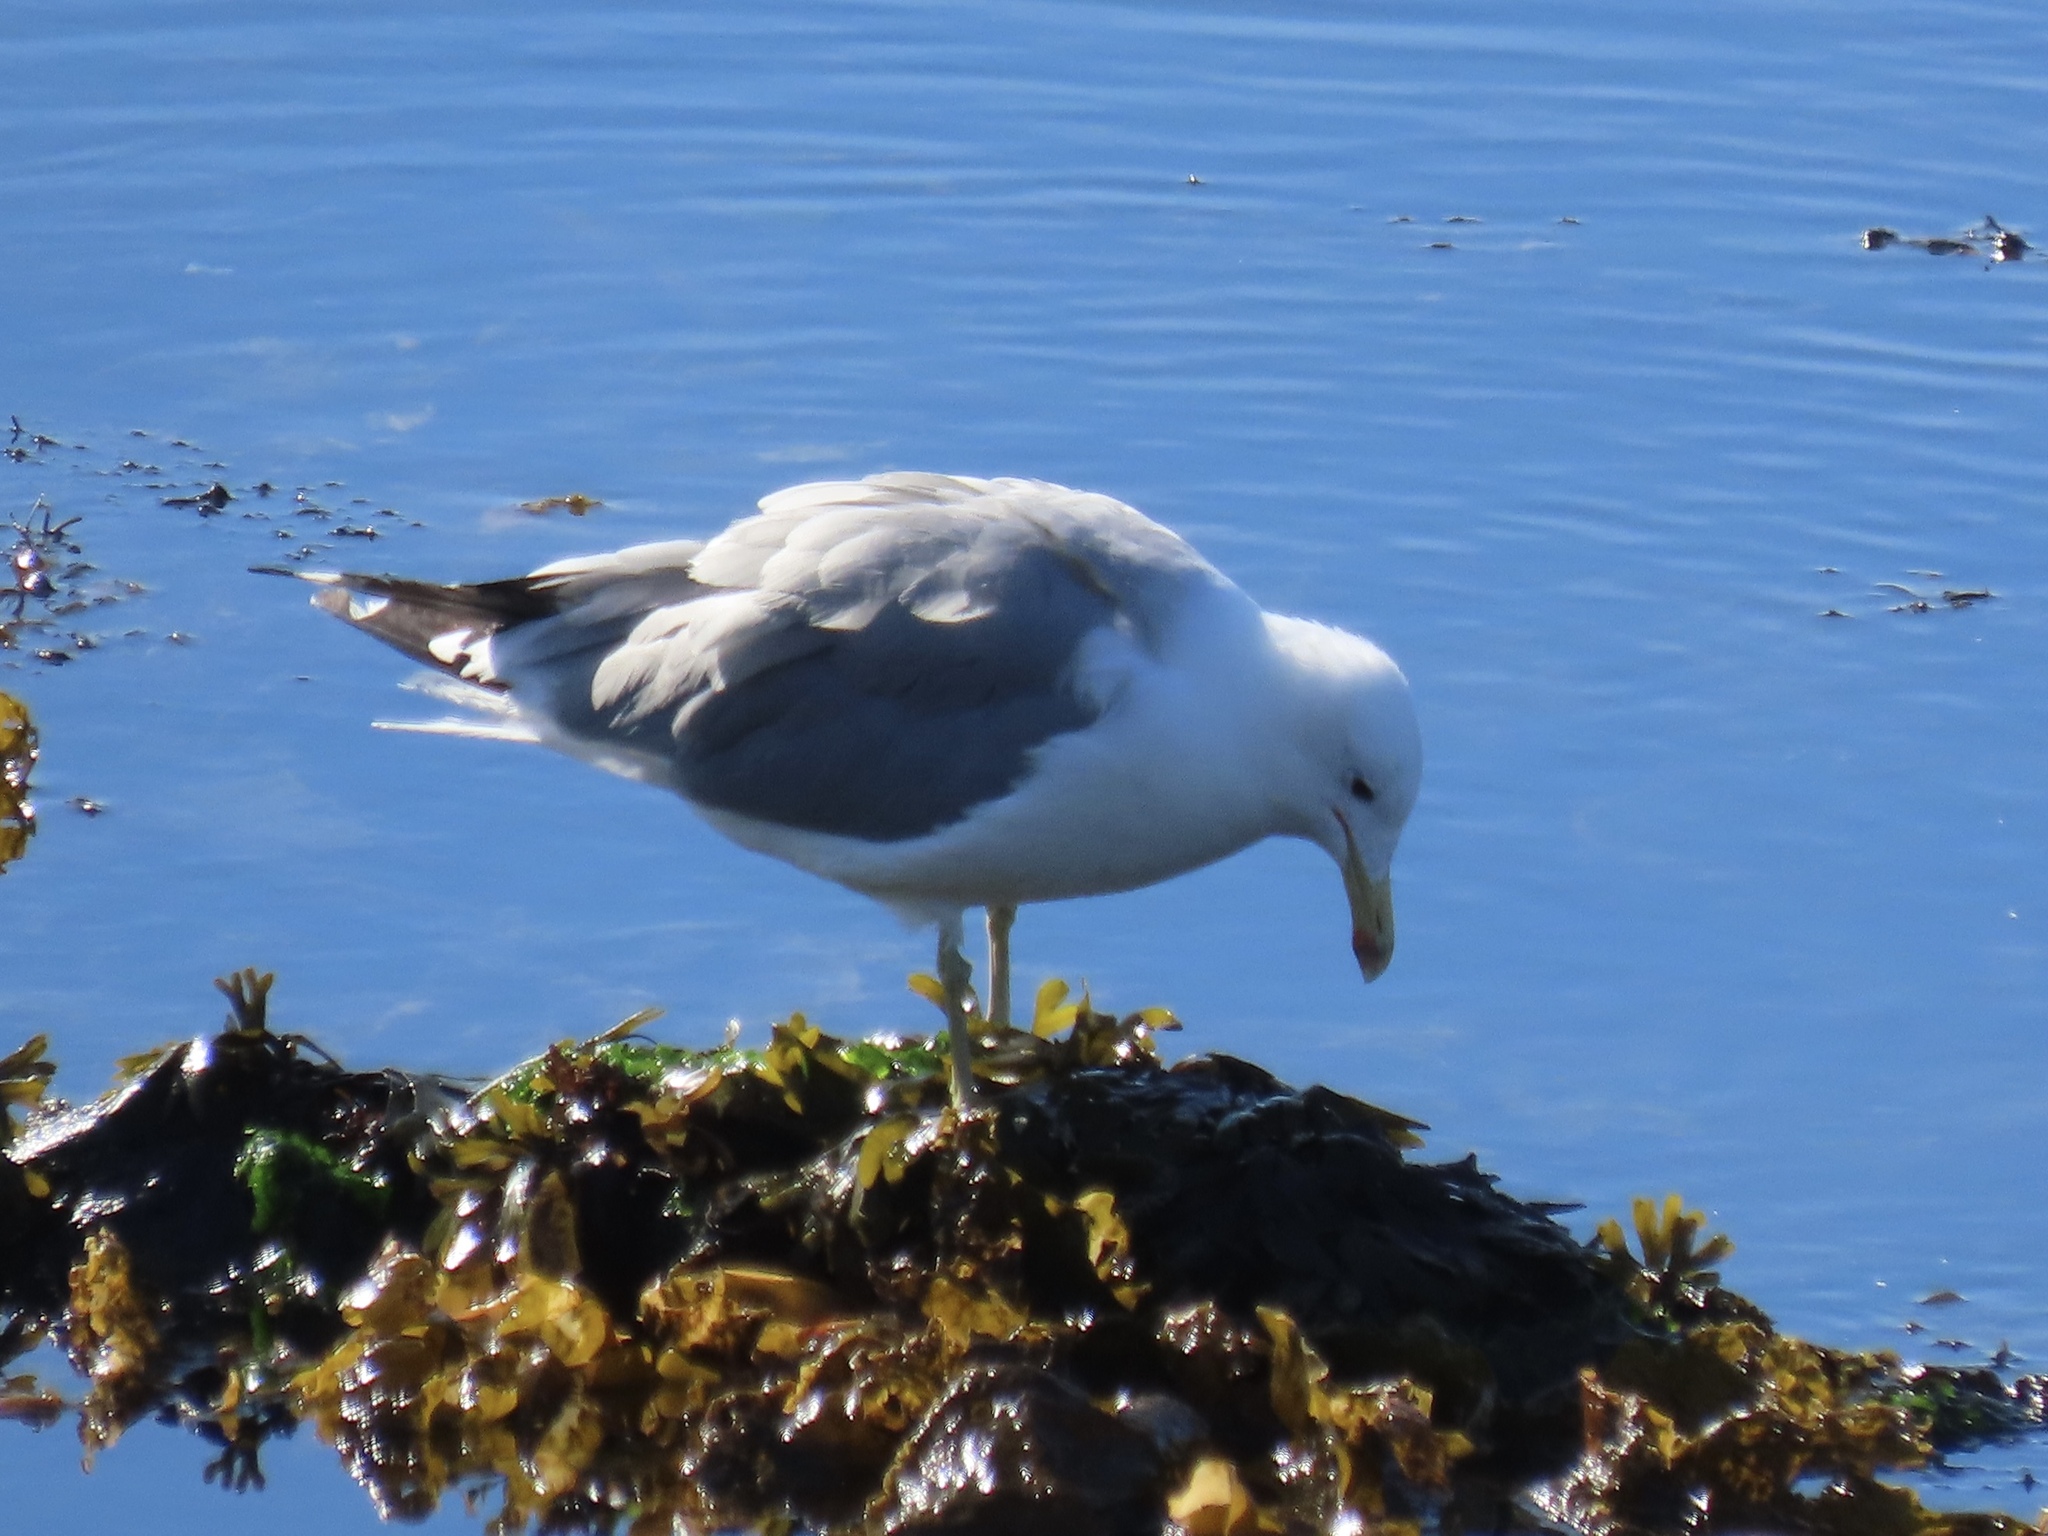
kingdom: Animalia
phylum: Chordata
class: Aves
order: Charadriiformes
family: Laridae
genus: Larus
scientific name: Larus californicus
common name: California gull
